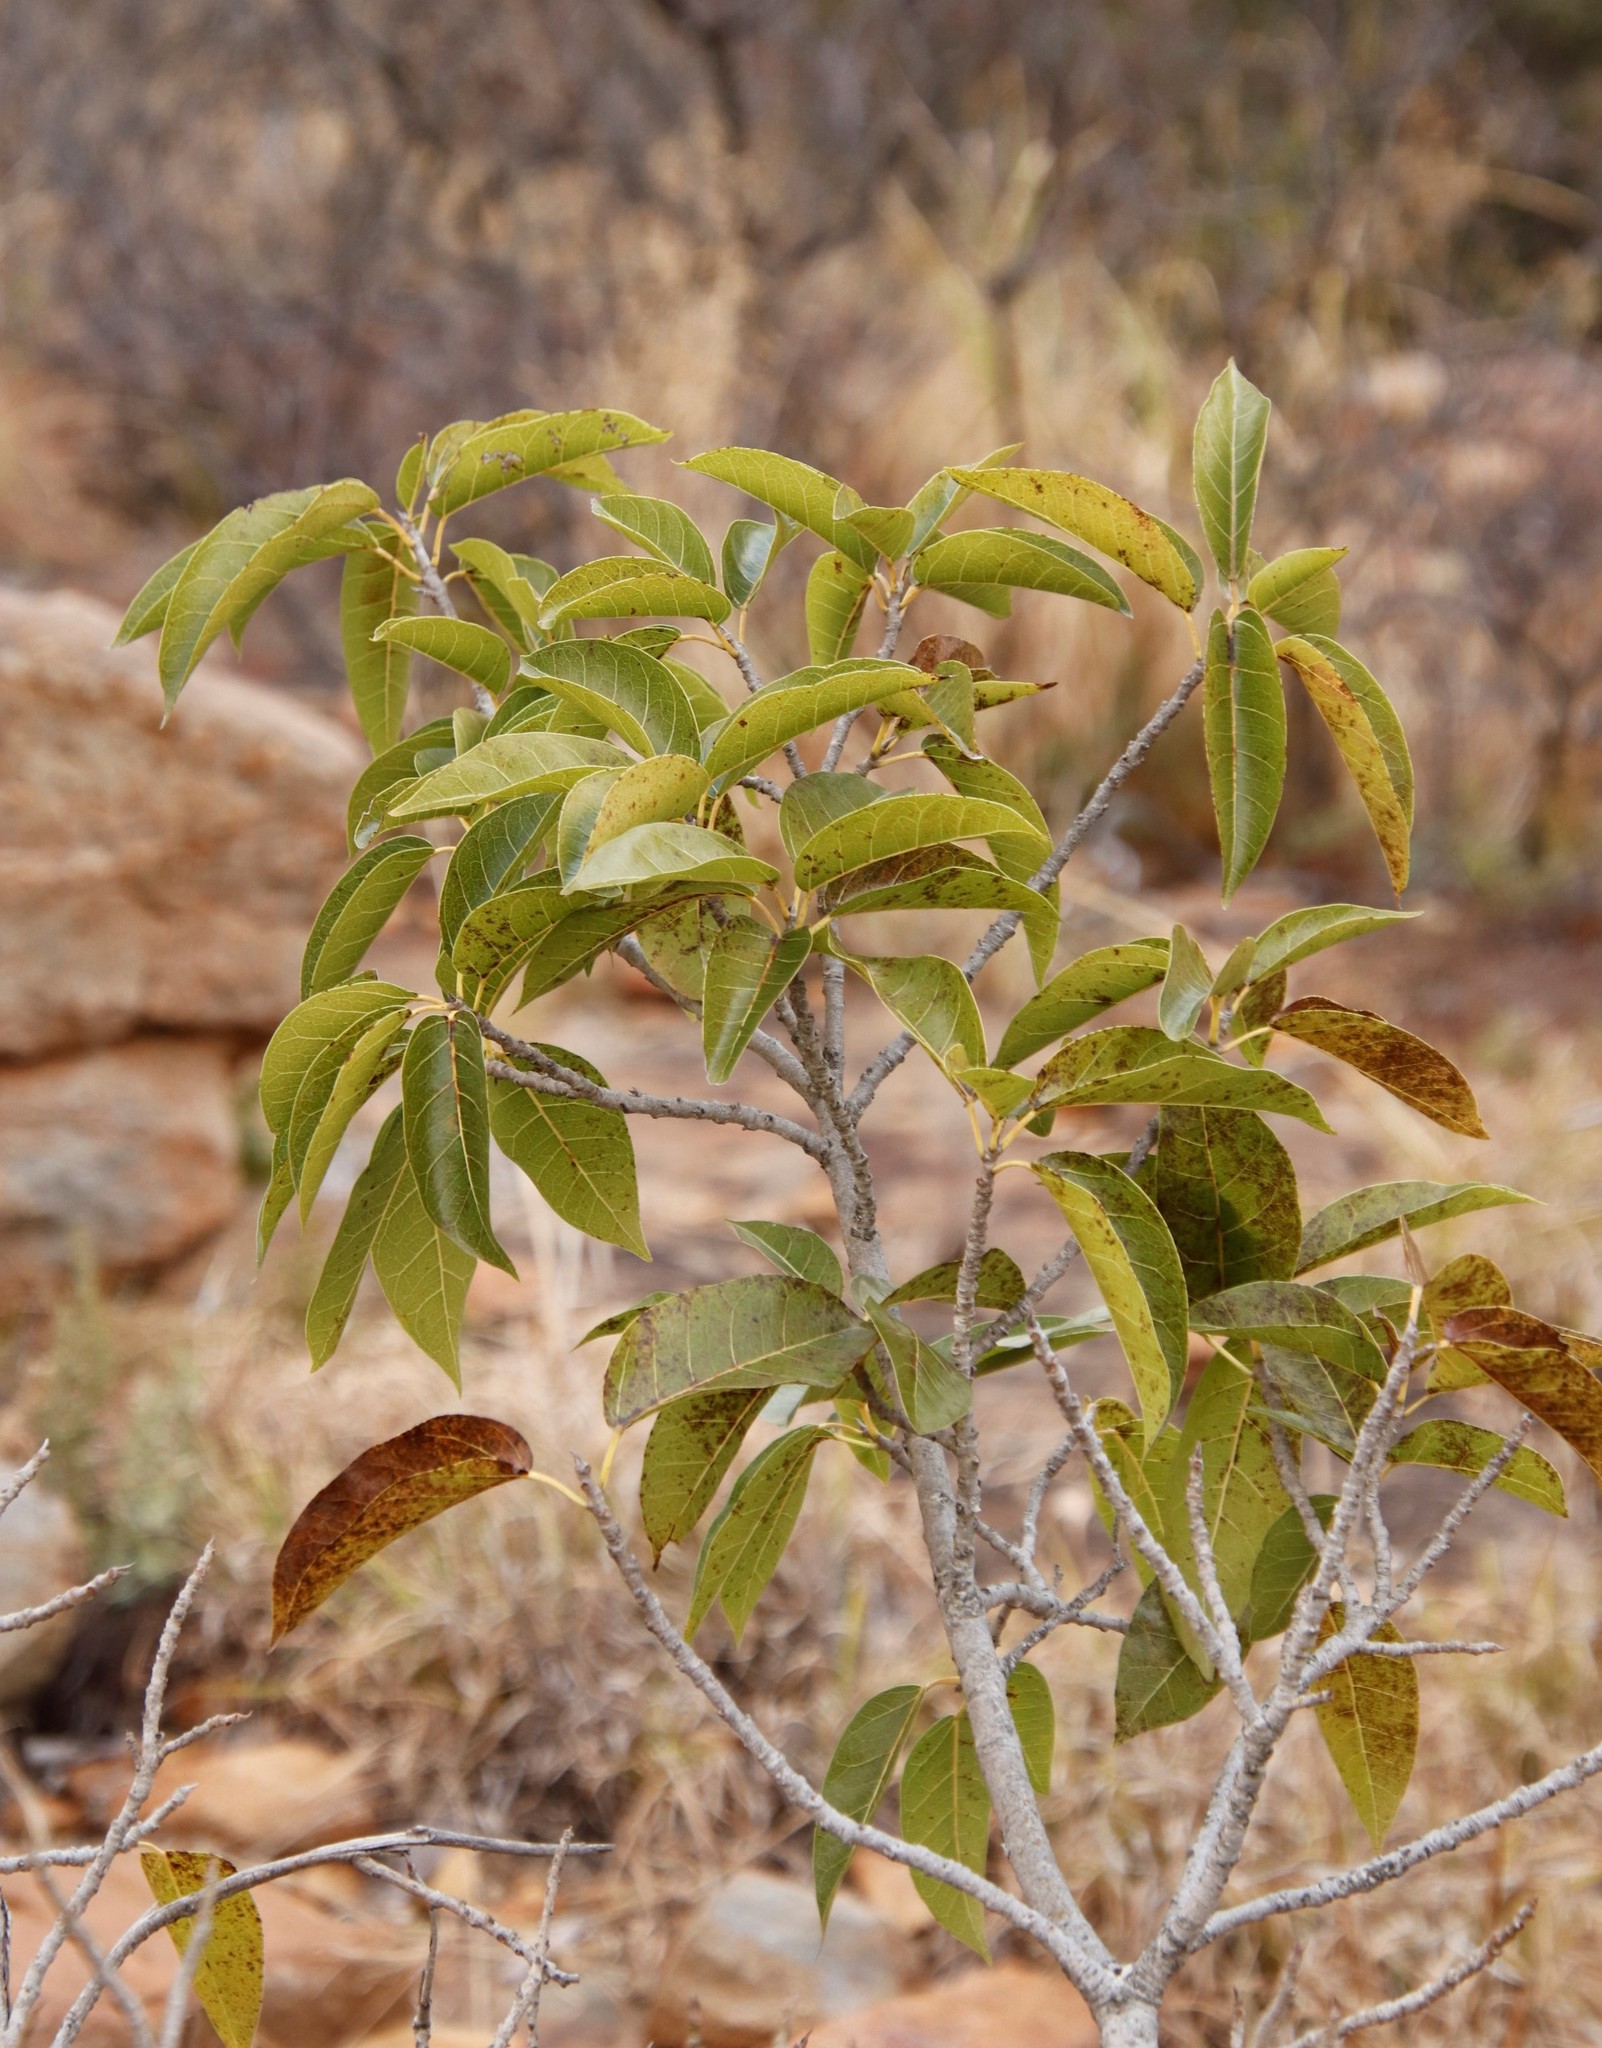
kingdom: Plantae
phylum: Tracheophyta
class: Magnoliopsida
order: Rosales
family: Moraceae
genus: Ficus
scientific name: Ficus ingens
